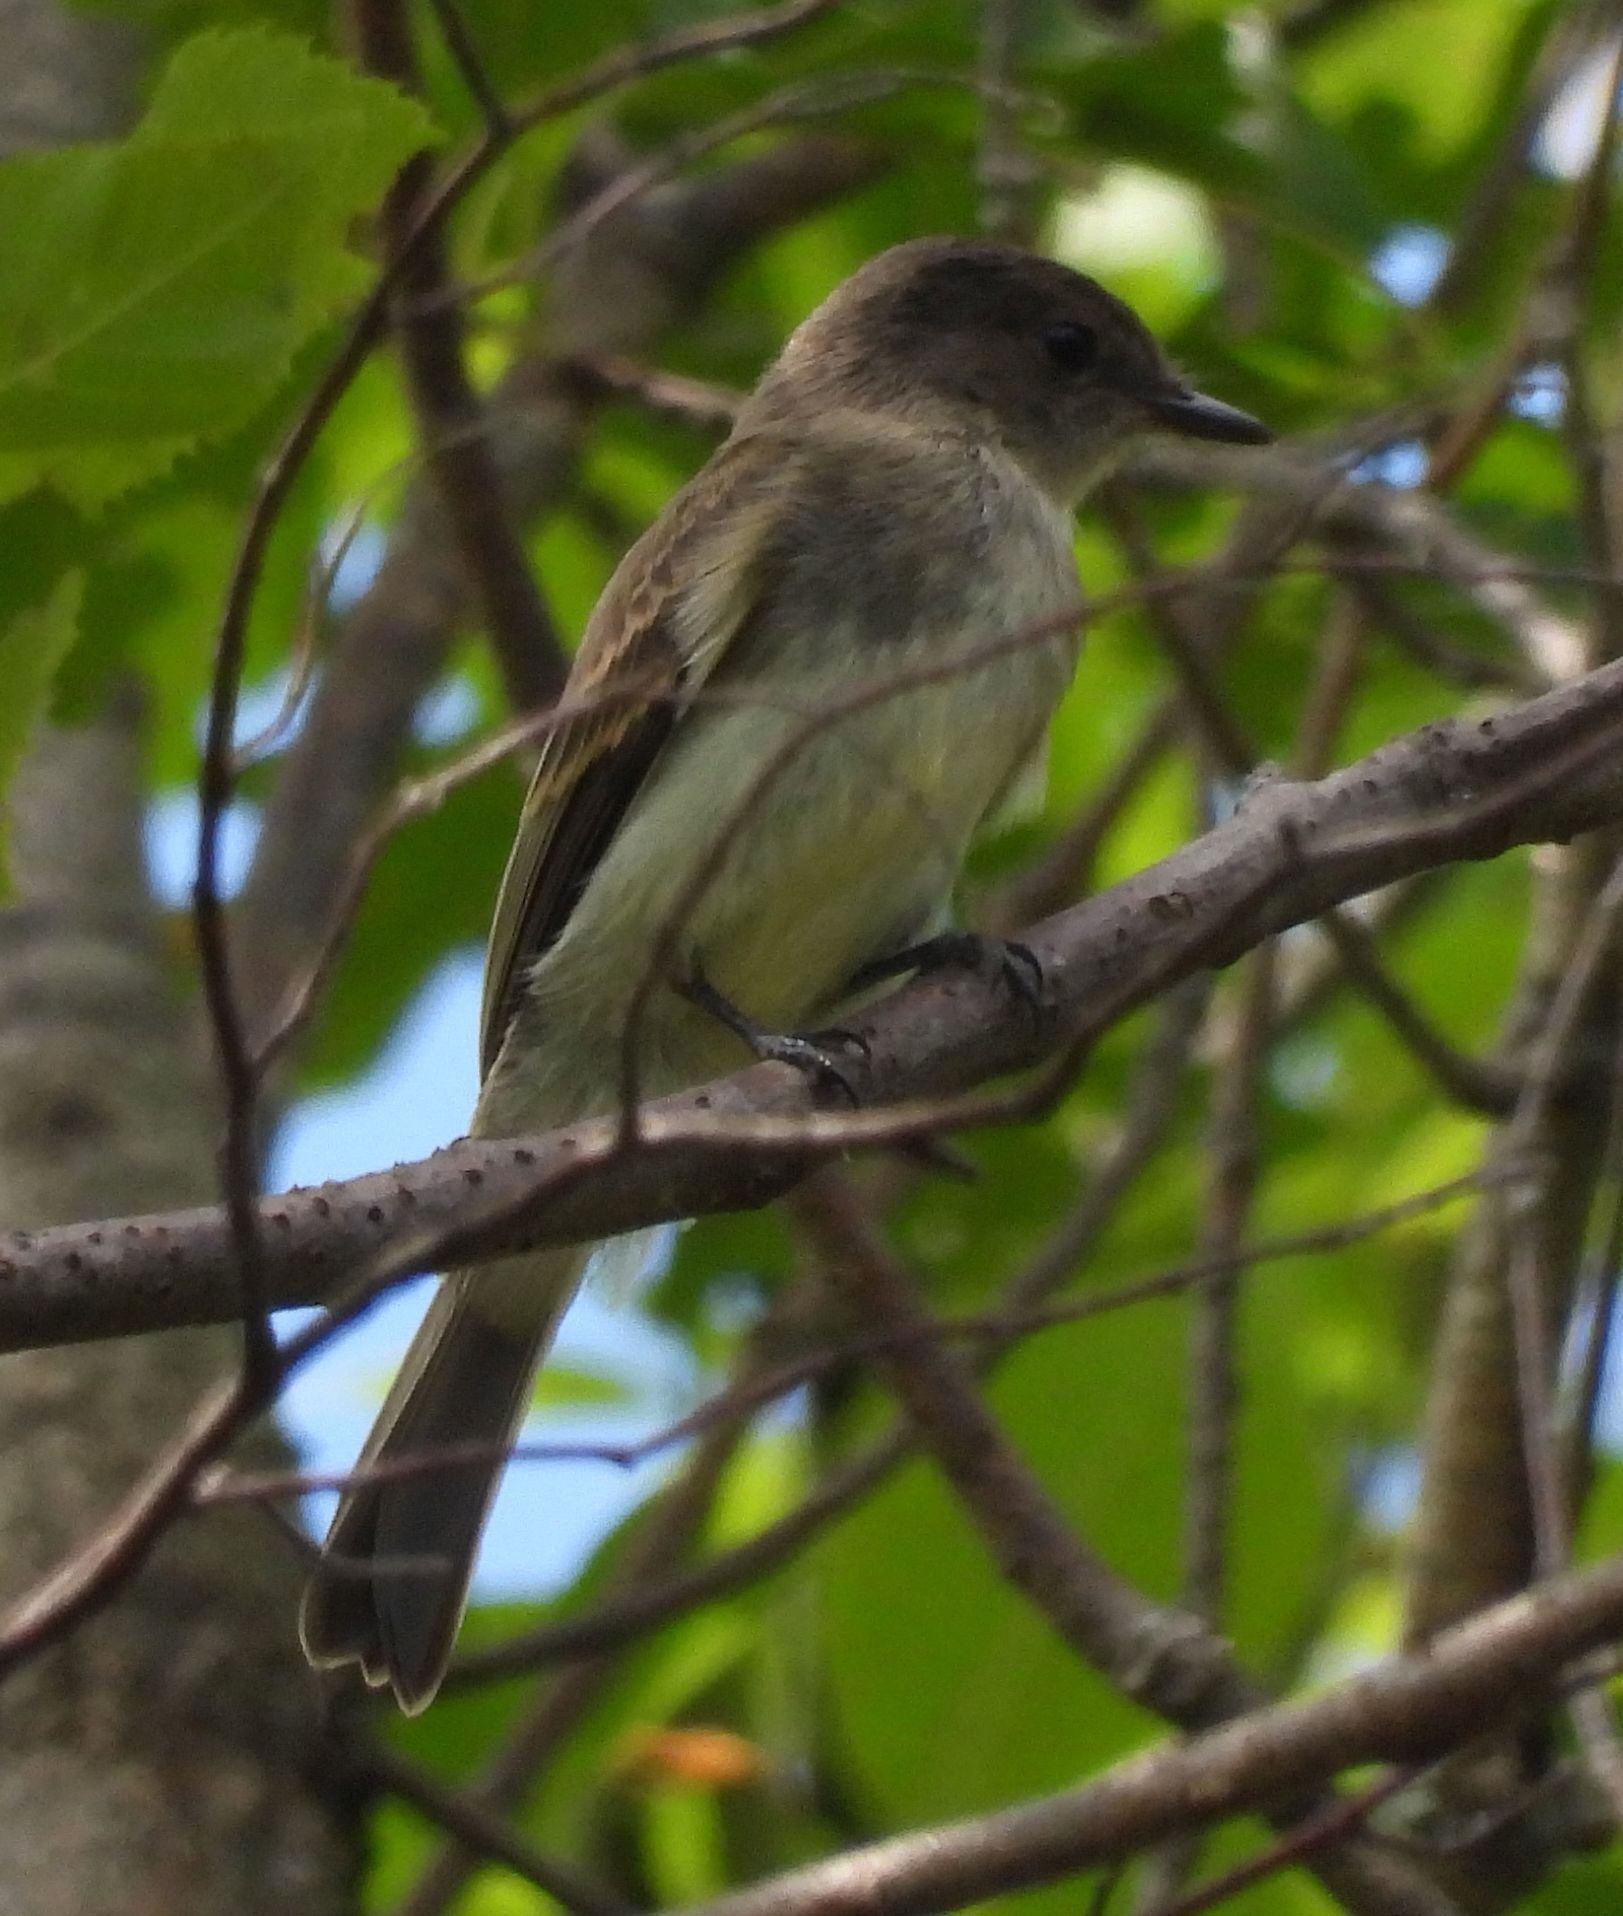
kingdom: Animalia
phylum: Chordata
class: Aves
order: Passeriformes
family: Tyrannidae
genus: Sayornis
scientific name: Sayornis phoebe
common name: Eastern phoebe
